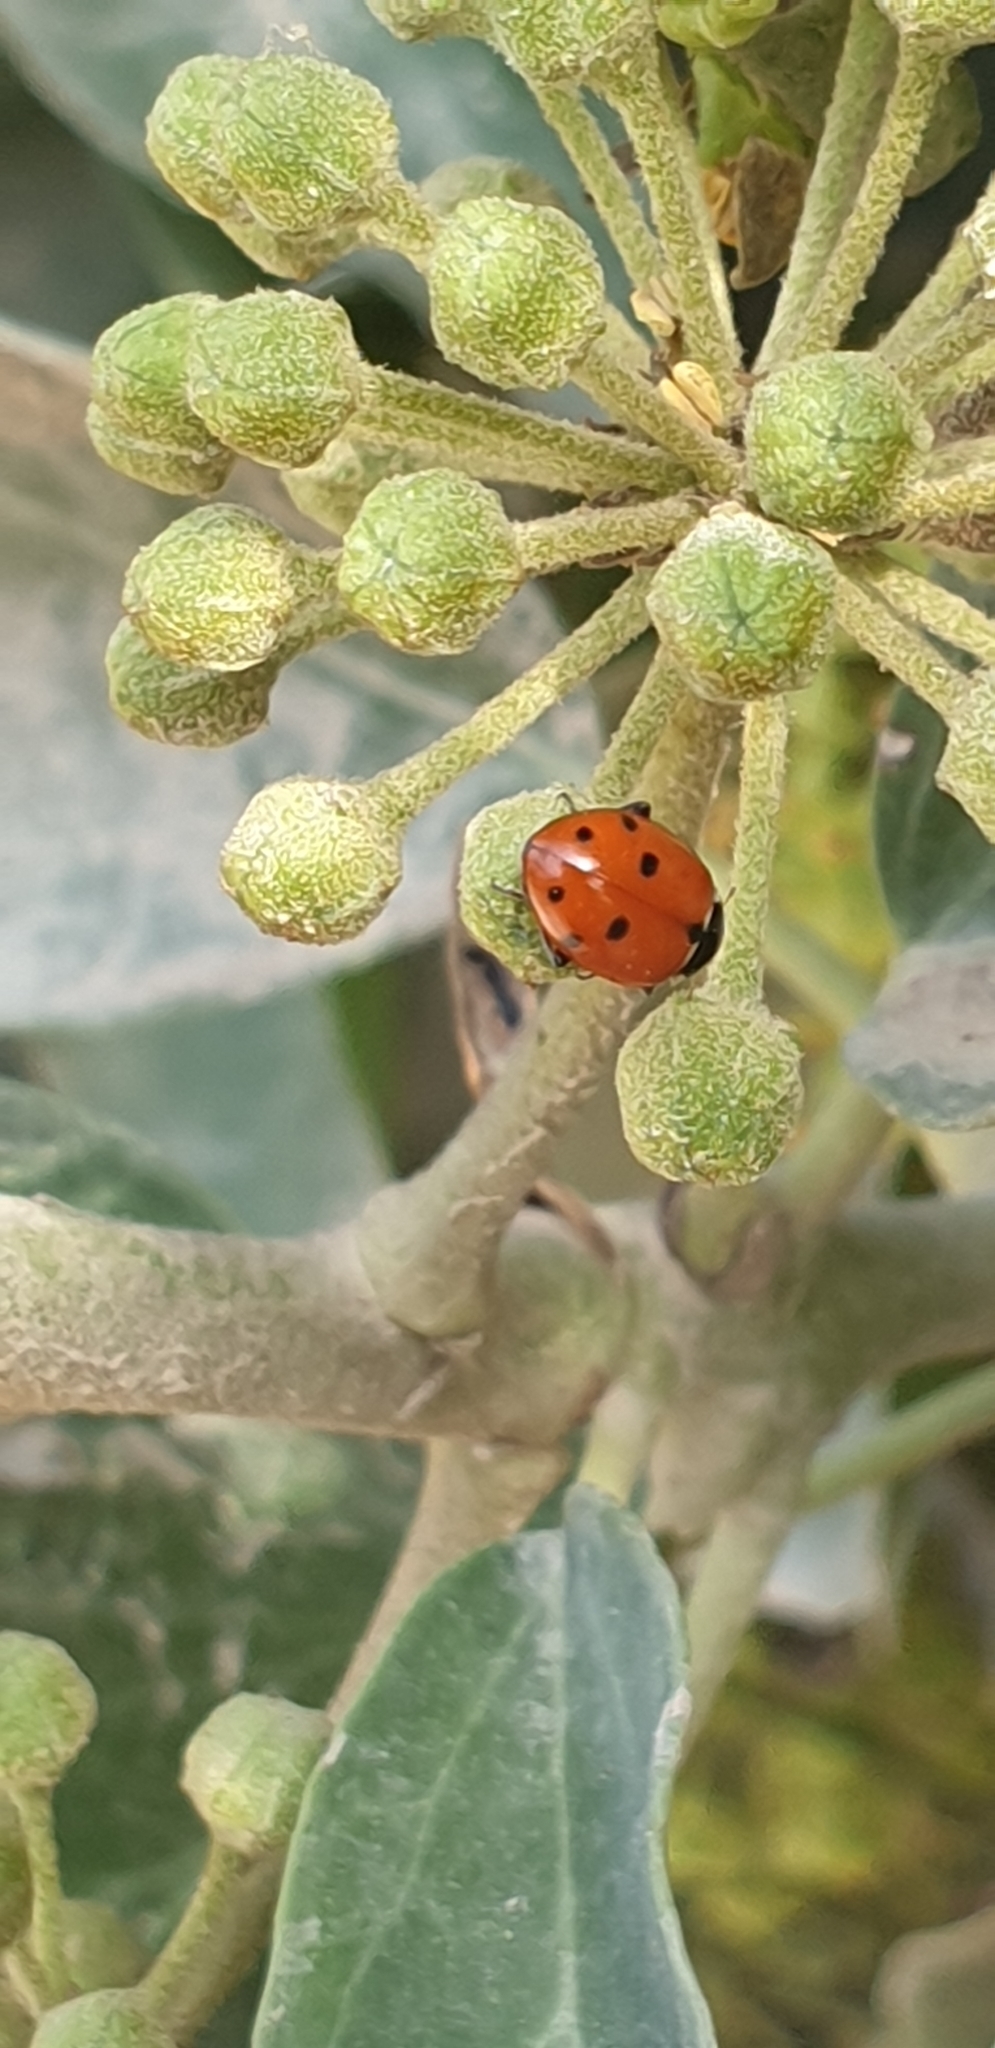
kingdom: Animalia
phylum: Arthropoda
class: Insecta
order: Coleoptera
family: Coccinellidae
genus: Hippodamia
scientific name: Hippodamia variegata
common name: Ladybird beetle
